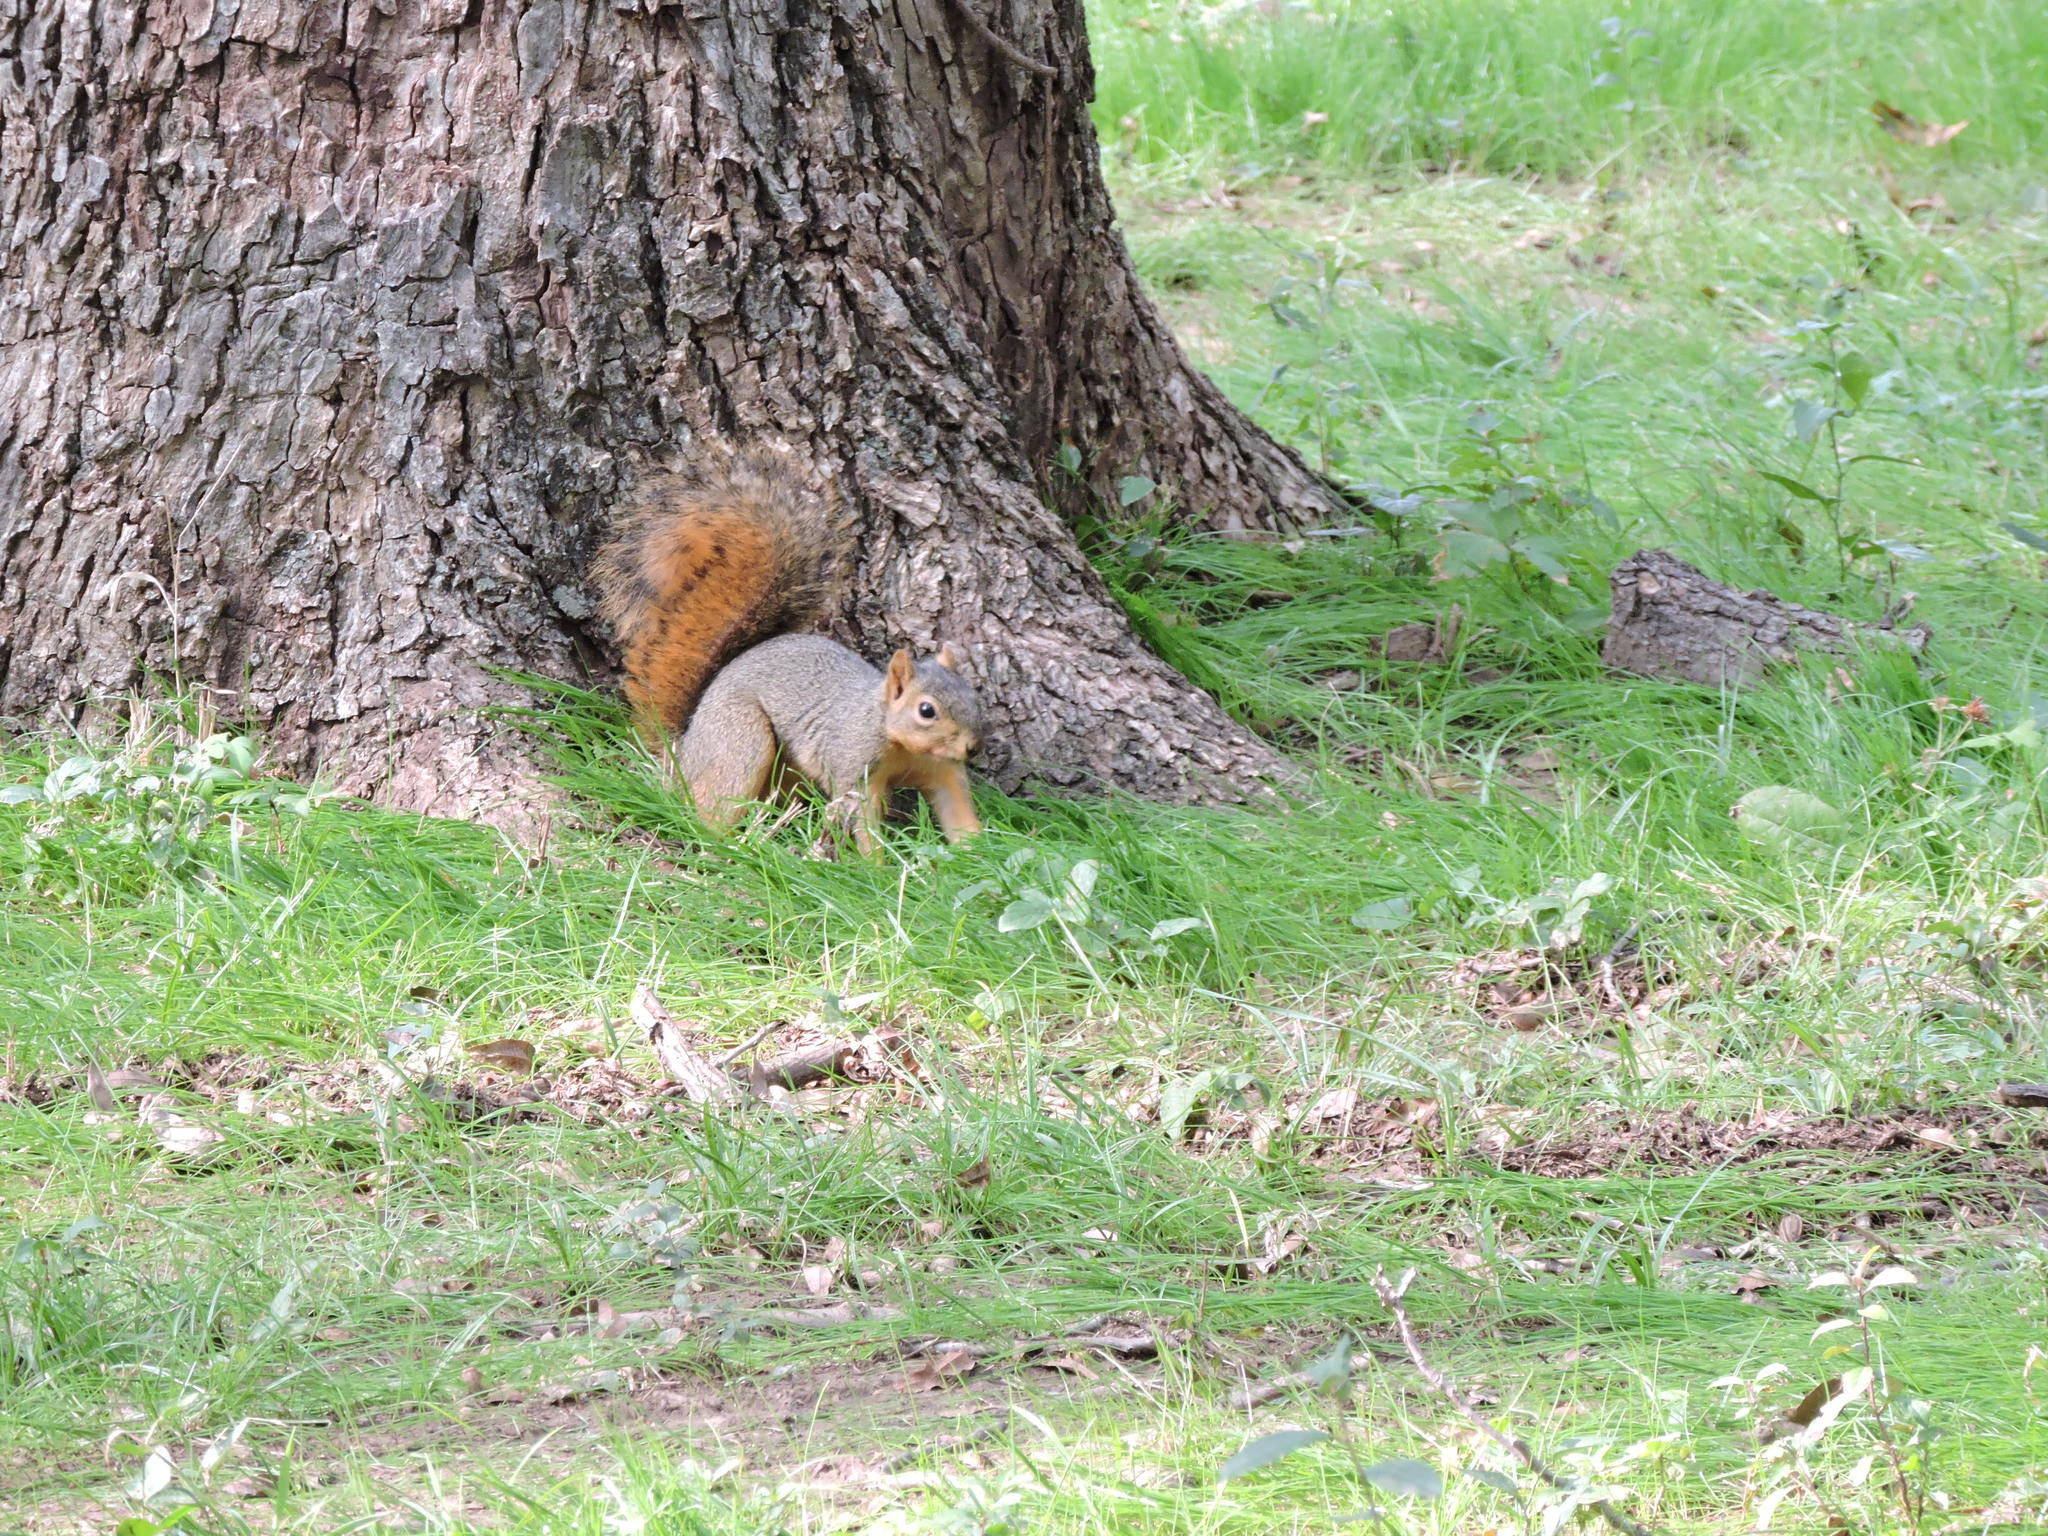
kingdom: Animalia
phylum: Chordata
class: Mammalia
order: Rodentia
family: Sciuridae
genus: Sciurus
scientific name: Sciurus niger
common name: Fox squirrel
